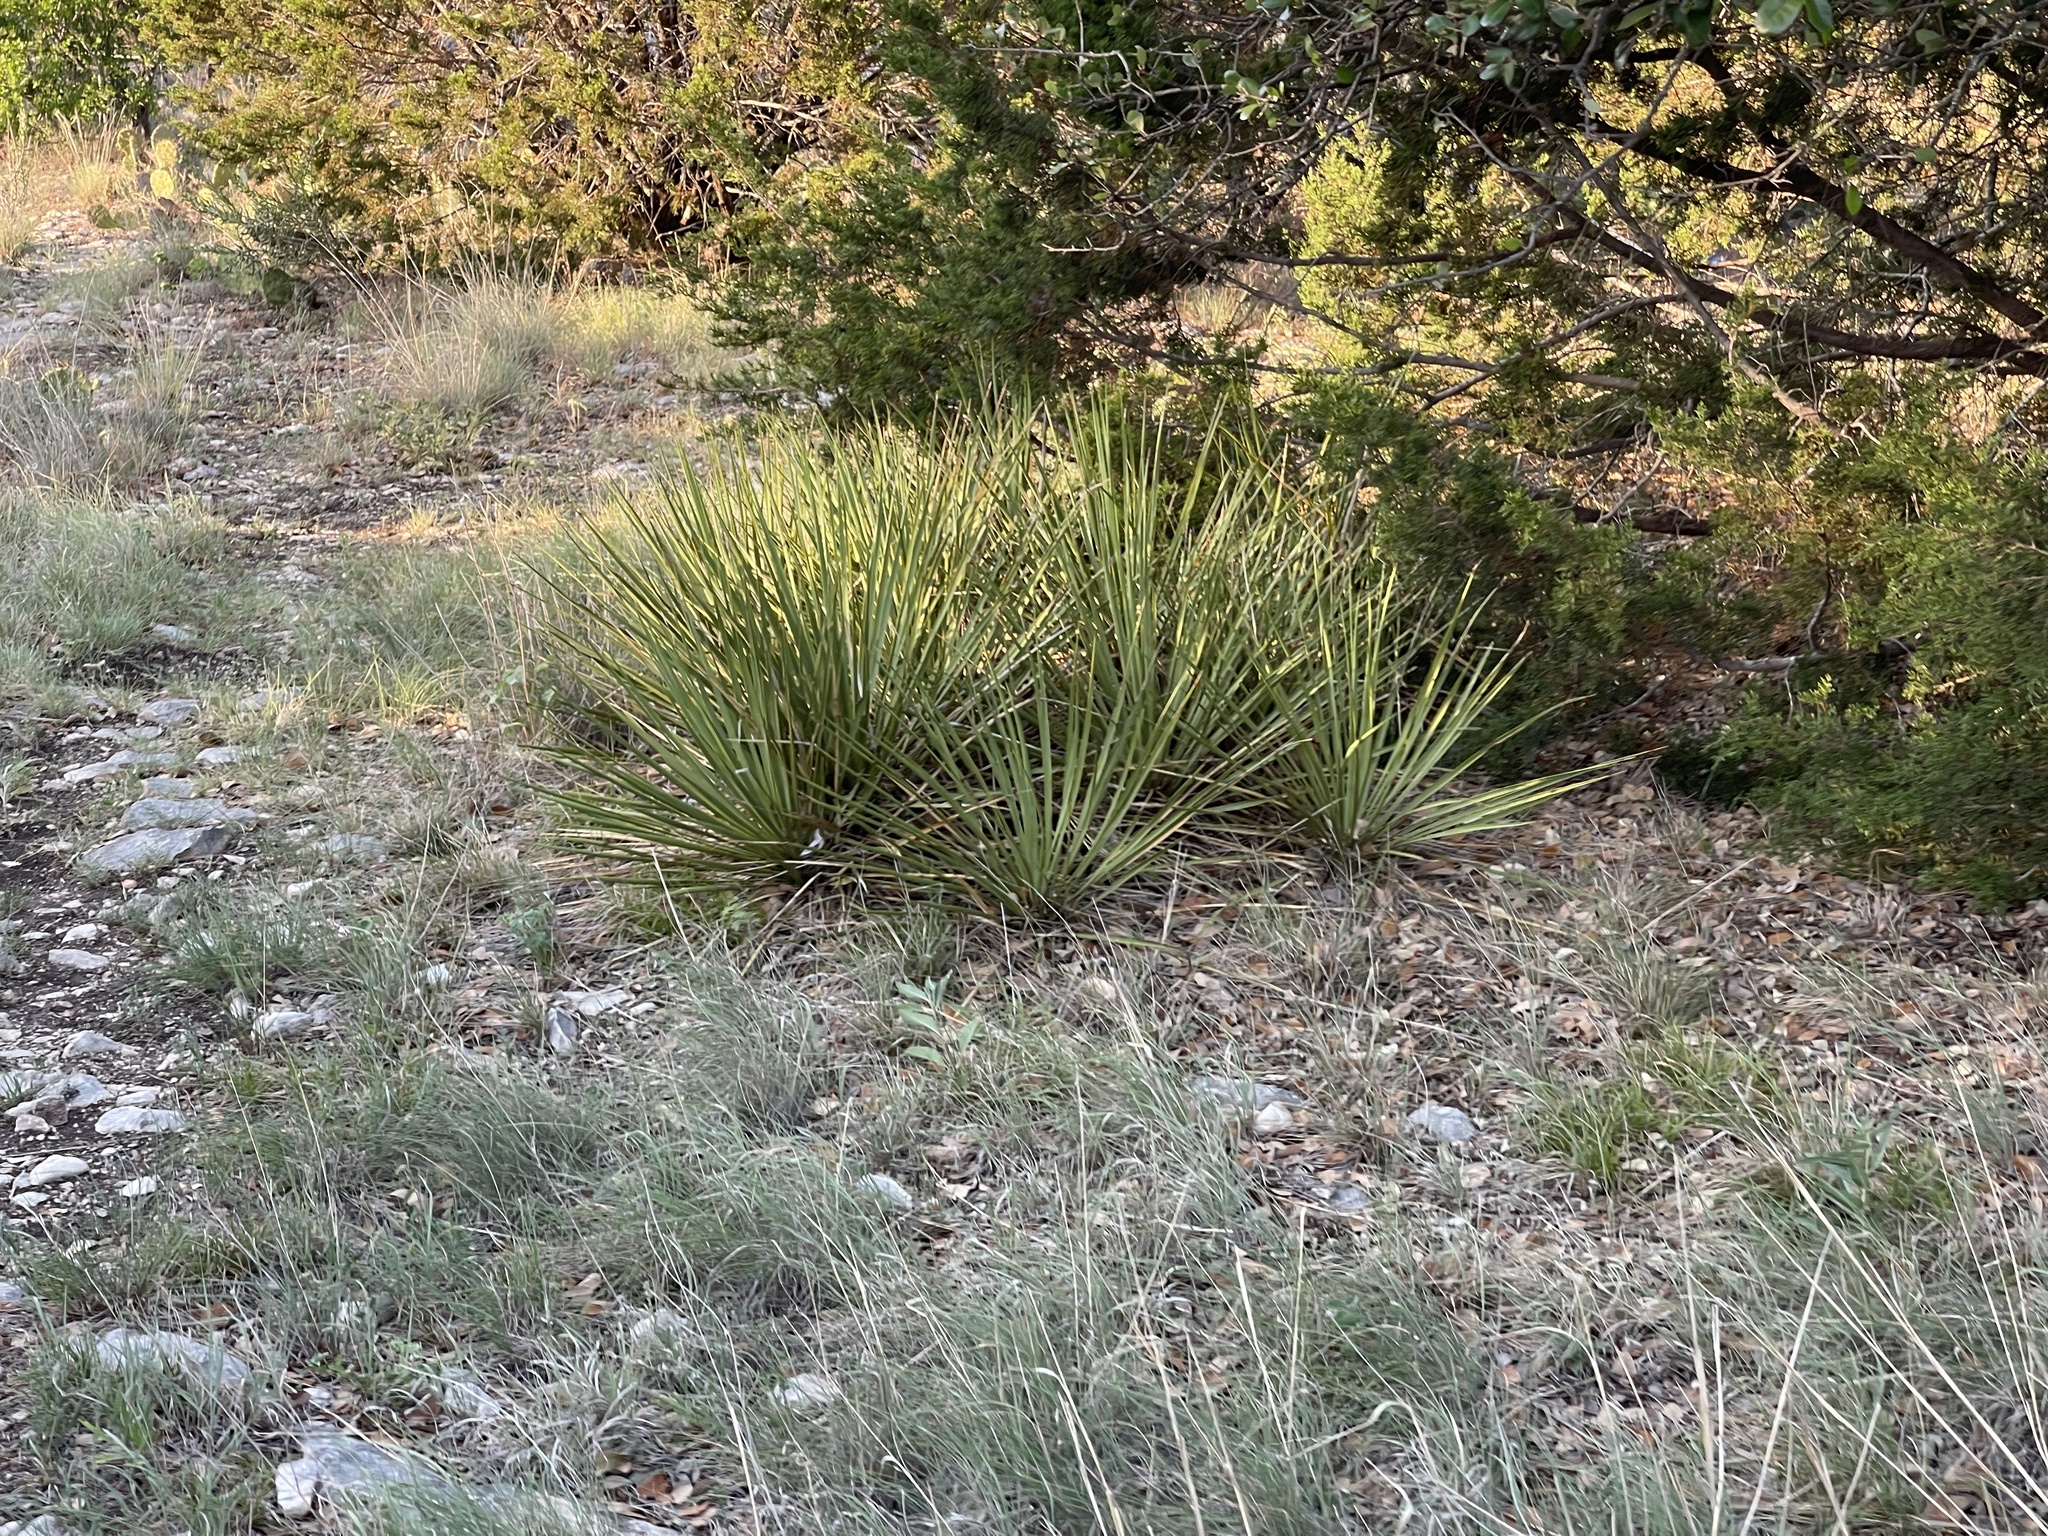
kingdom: Plantae
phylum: Tracheophyta
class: Liliopsida
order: Asparagales
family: Asparagaceae
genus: Yucca
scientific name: Yucca reverchonii
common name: San angelo yucca
